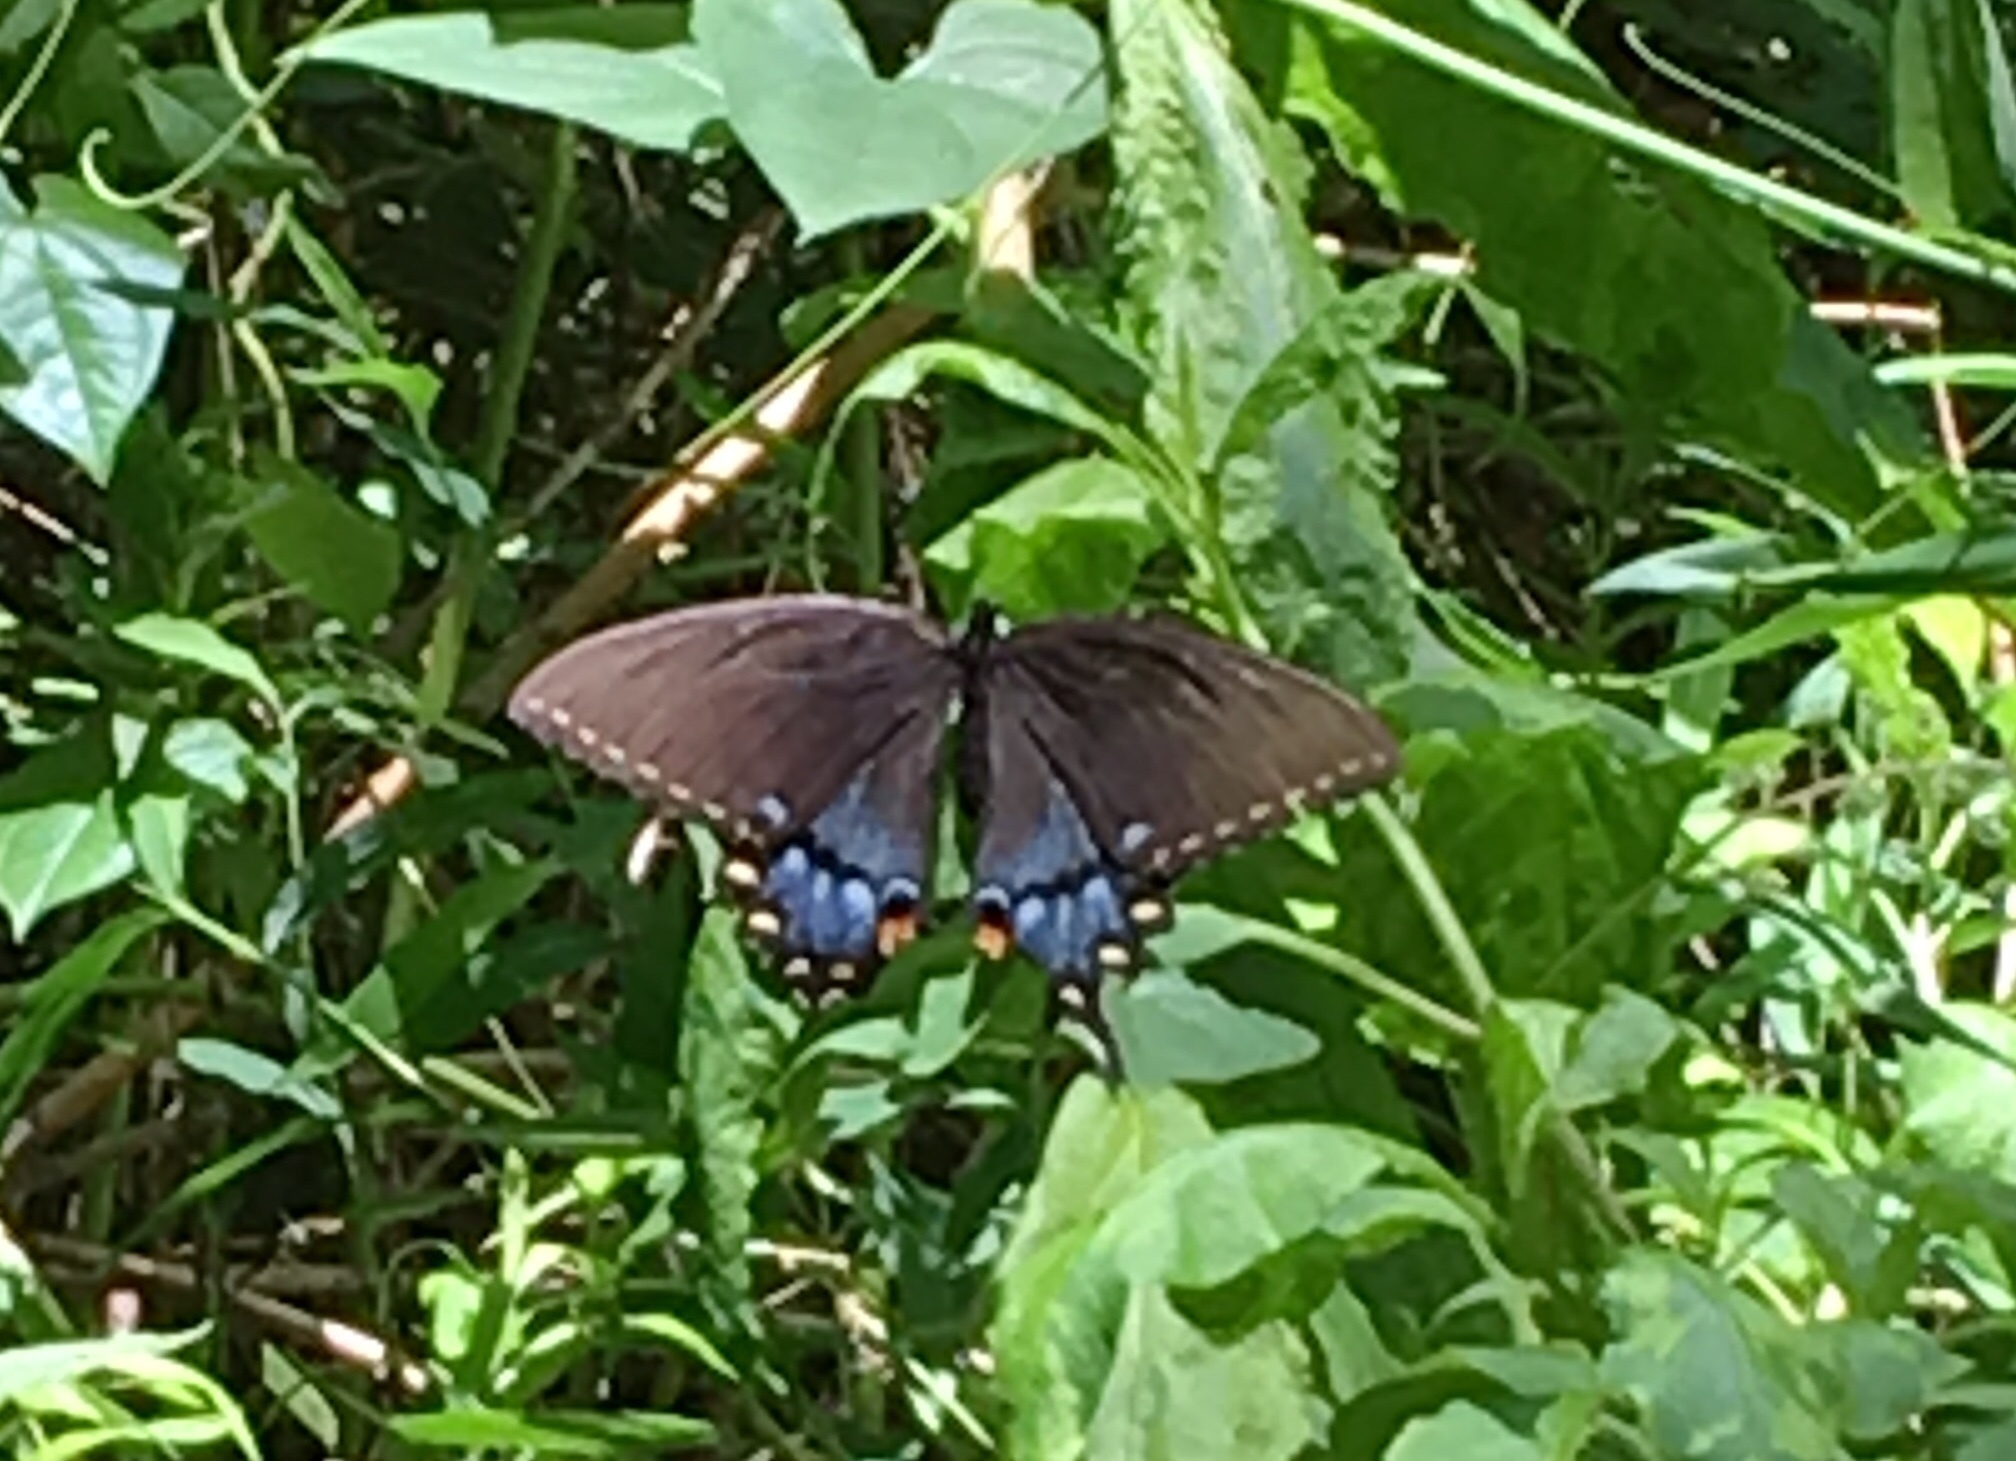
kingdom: Animalia
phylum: Arthropoda
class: Insecta
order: Lepidoptera
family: Papilionidae
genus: Papilio
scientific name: Papilio glaucus
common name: Tiger swallowtail
